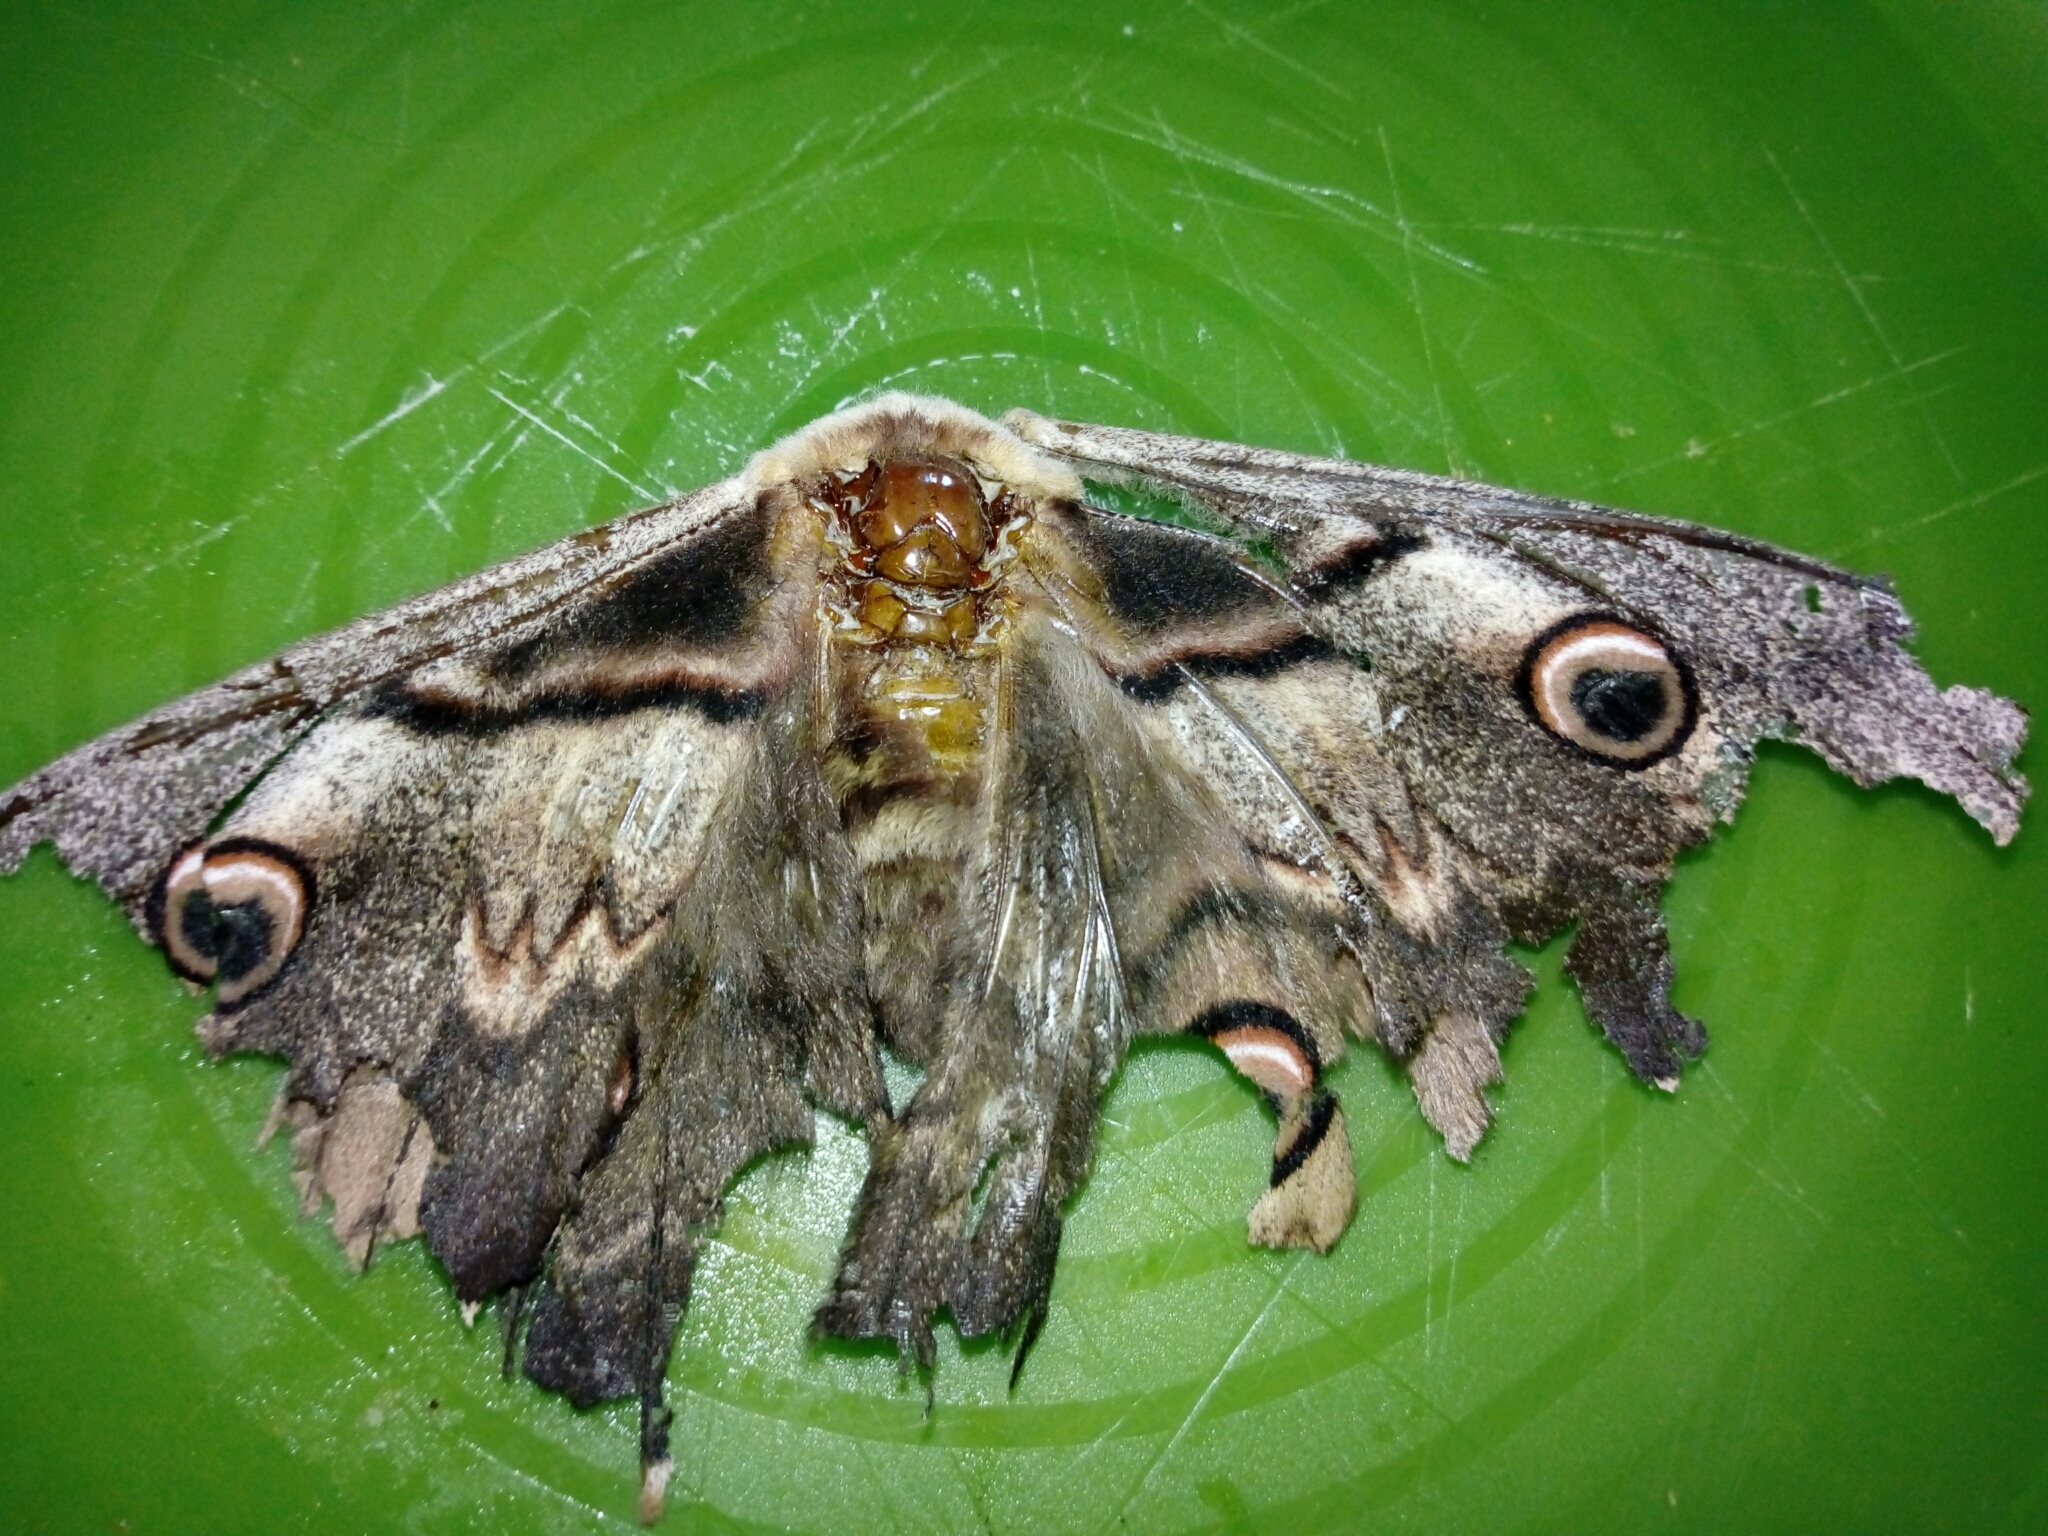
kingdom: Animalia
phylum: Arthropoda
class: Insecta
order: Lepidoptera
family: Saturniidae
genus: Saturnia
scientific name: Saturnia pyri
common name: Great peacock moth
